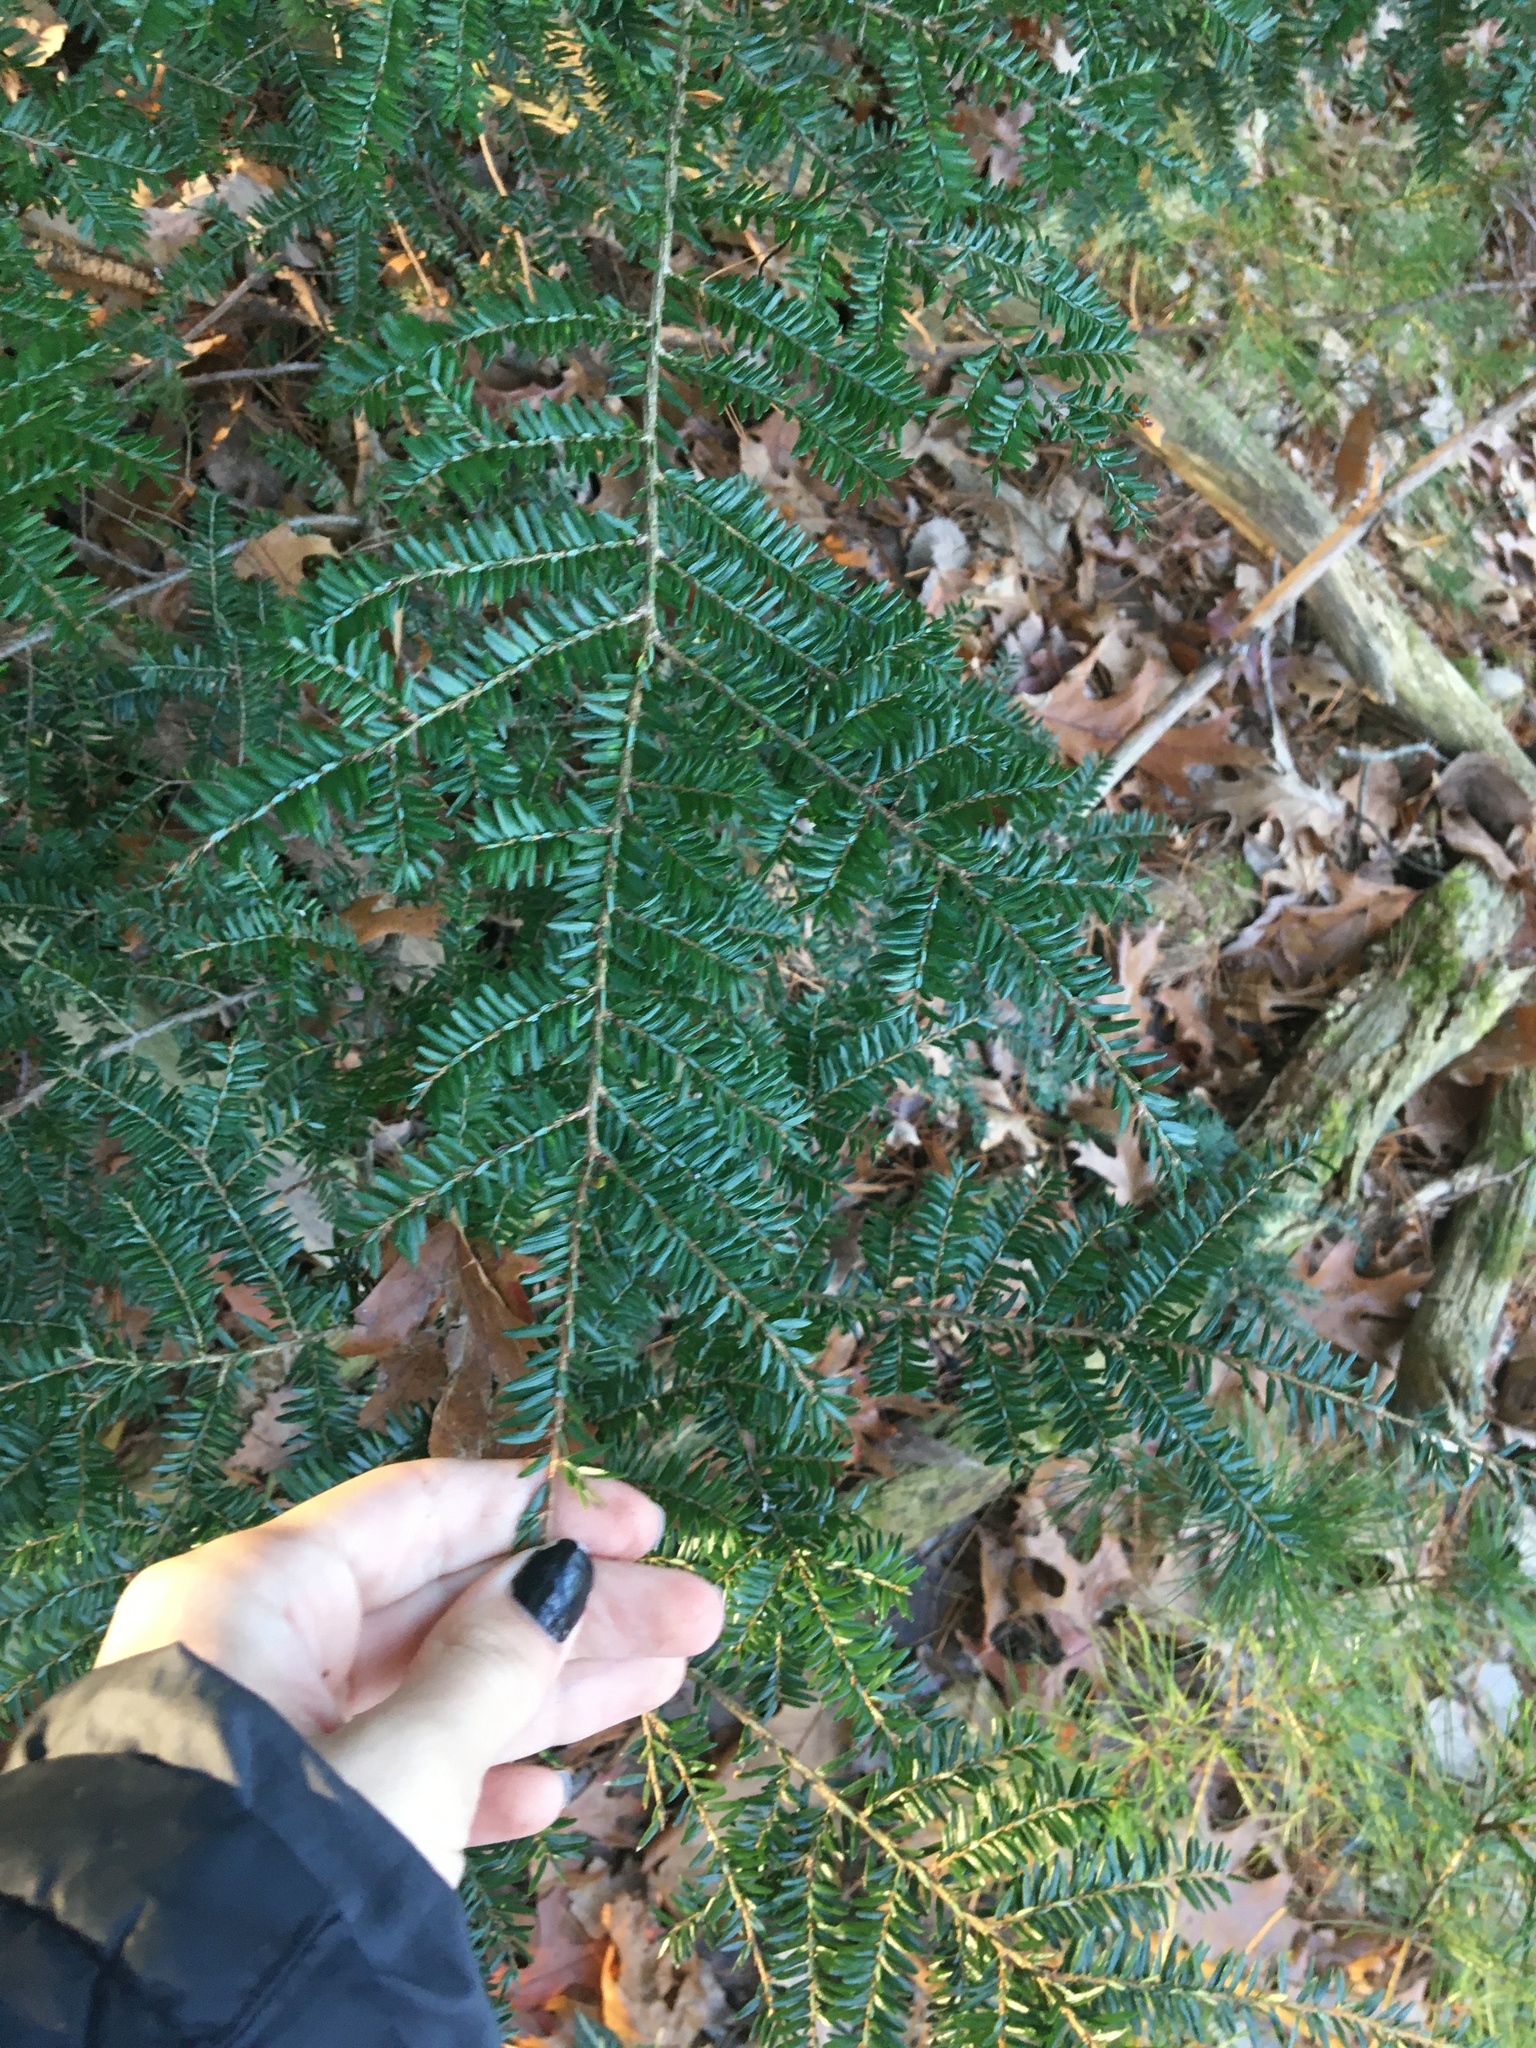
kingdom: Plantae
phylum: Tracheophyta
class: Pinopsida
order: Pinales
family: Pinaceae
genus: Tsuga
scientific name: Tsuga canadensis
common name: Eastern hemlock
